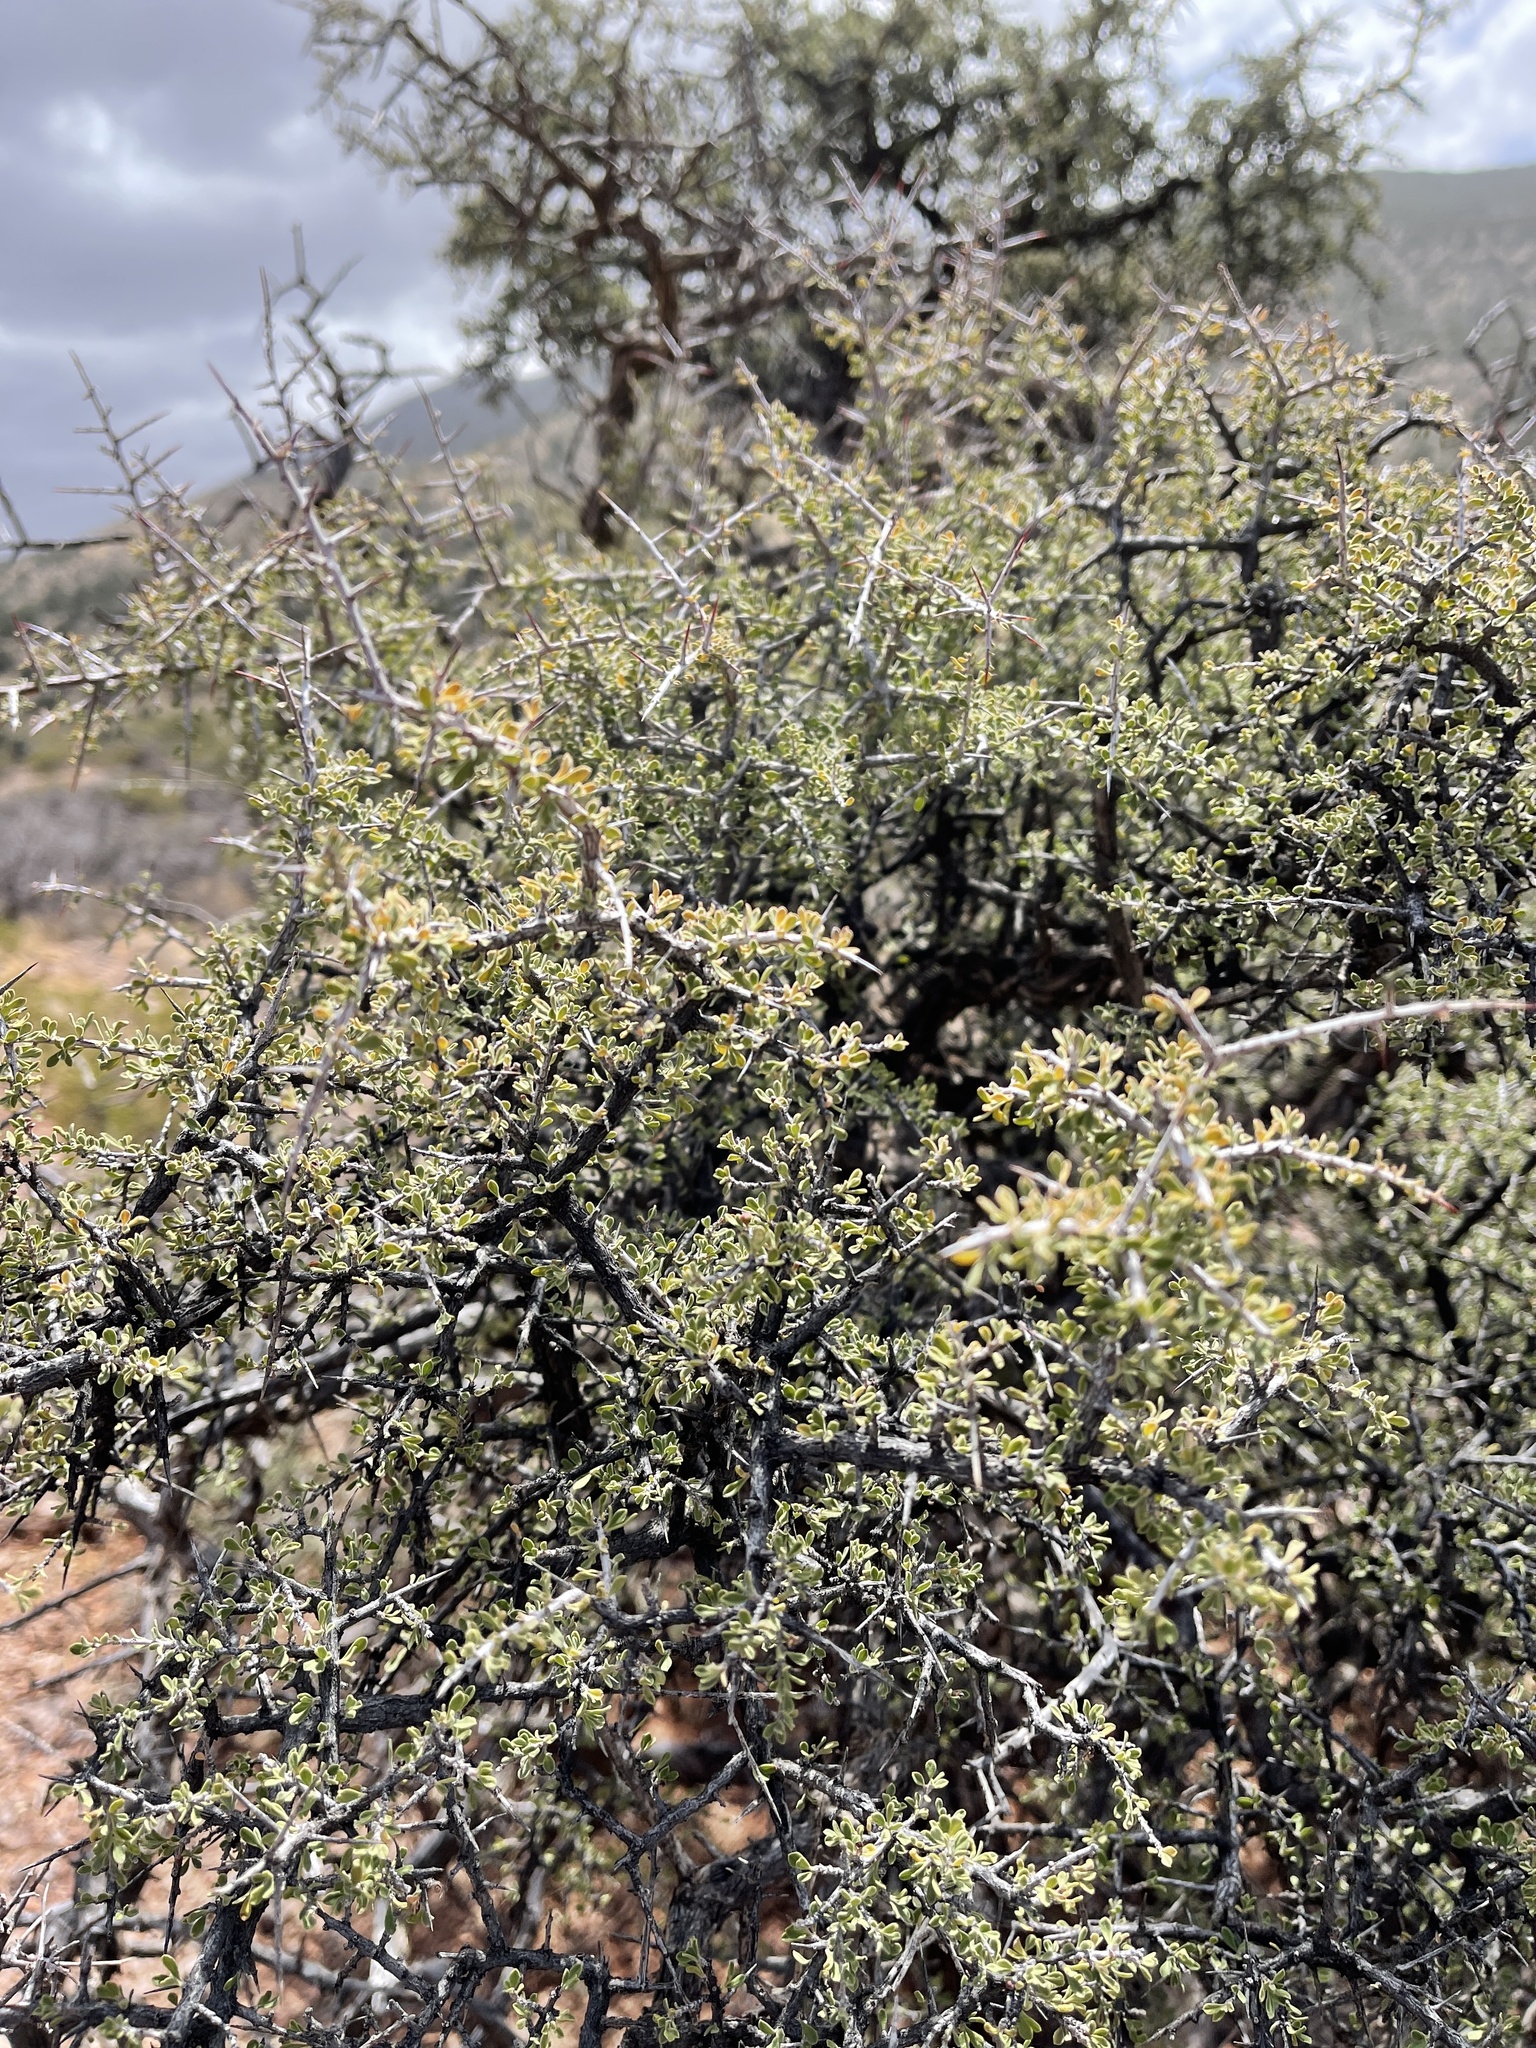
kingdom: Plantae
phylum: Tracheophyta
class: Magnoliopsida
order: Rosales
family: Rhamnaceae
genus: Condalia
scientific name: Condalia warnockii
